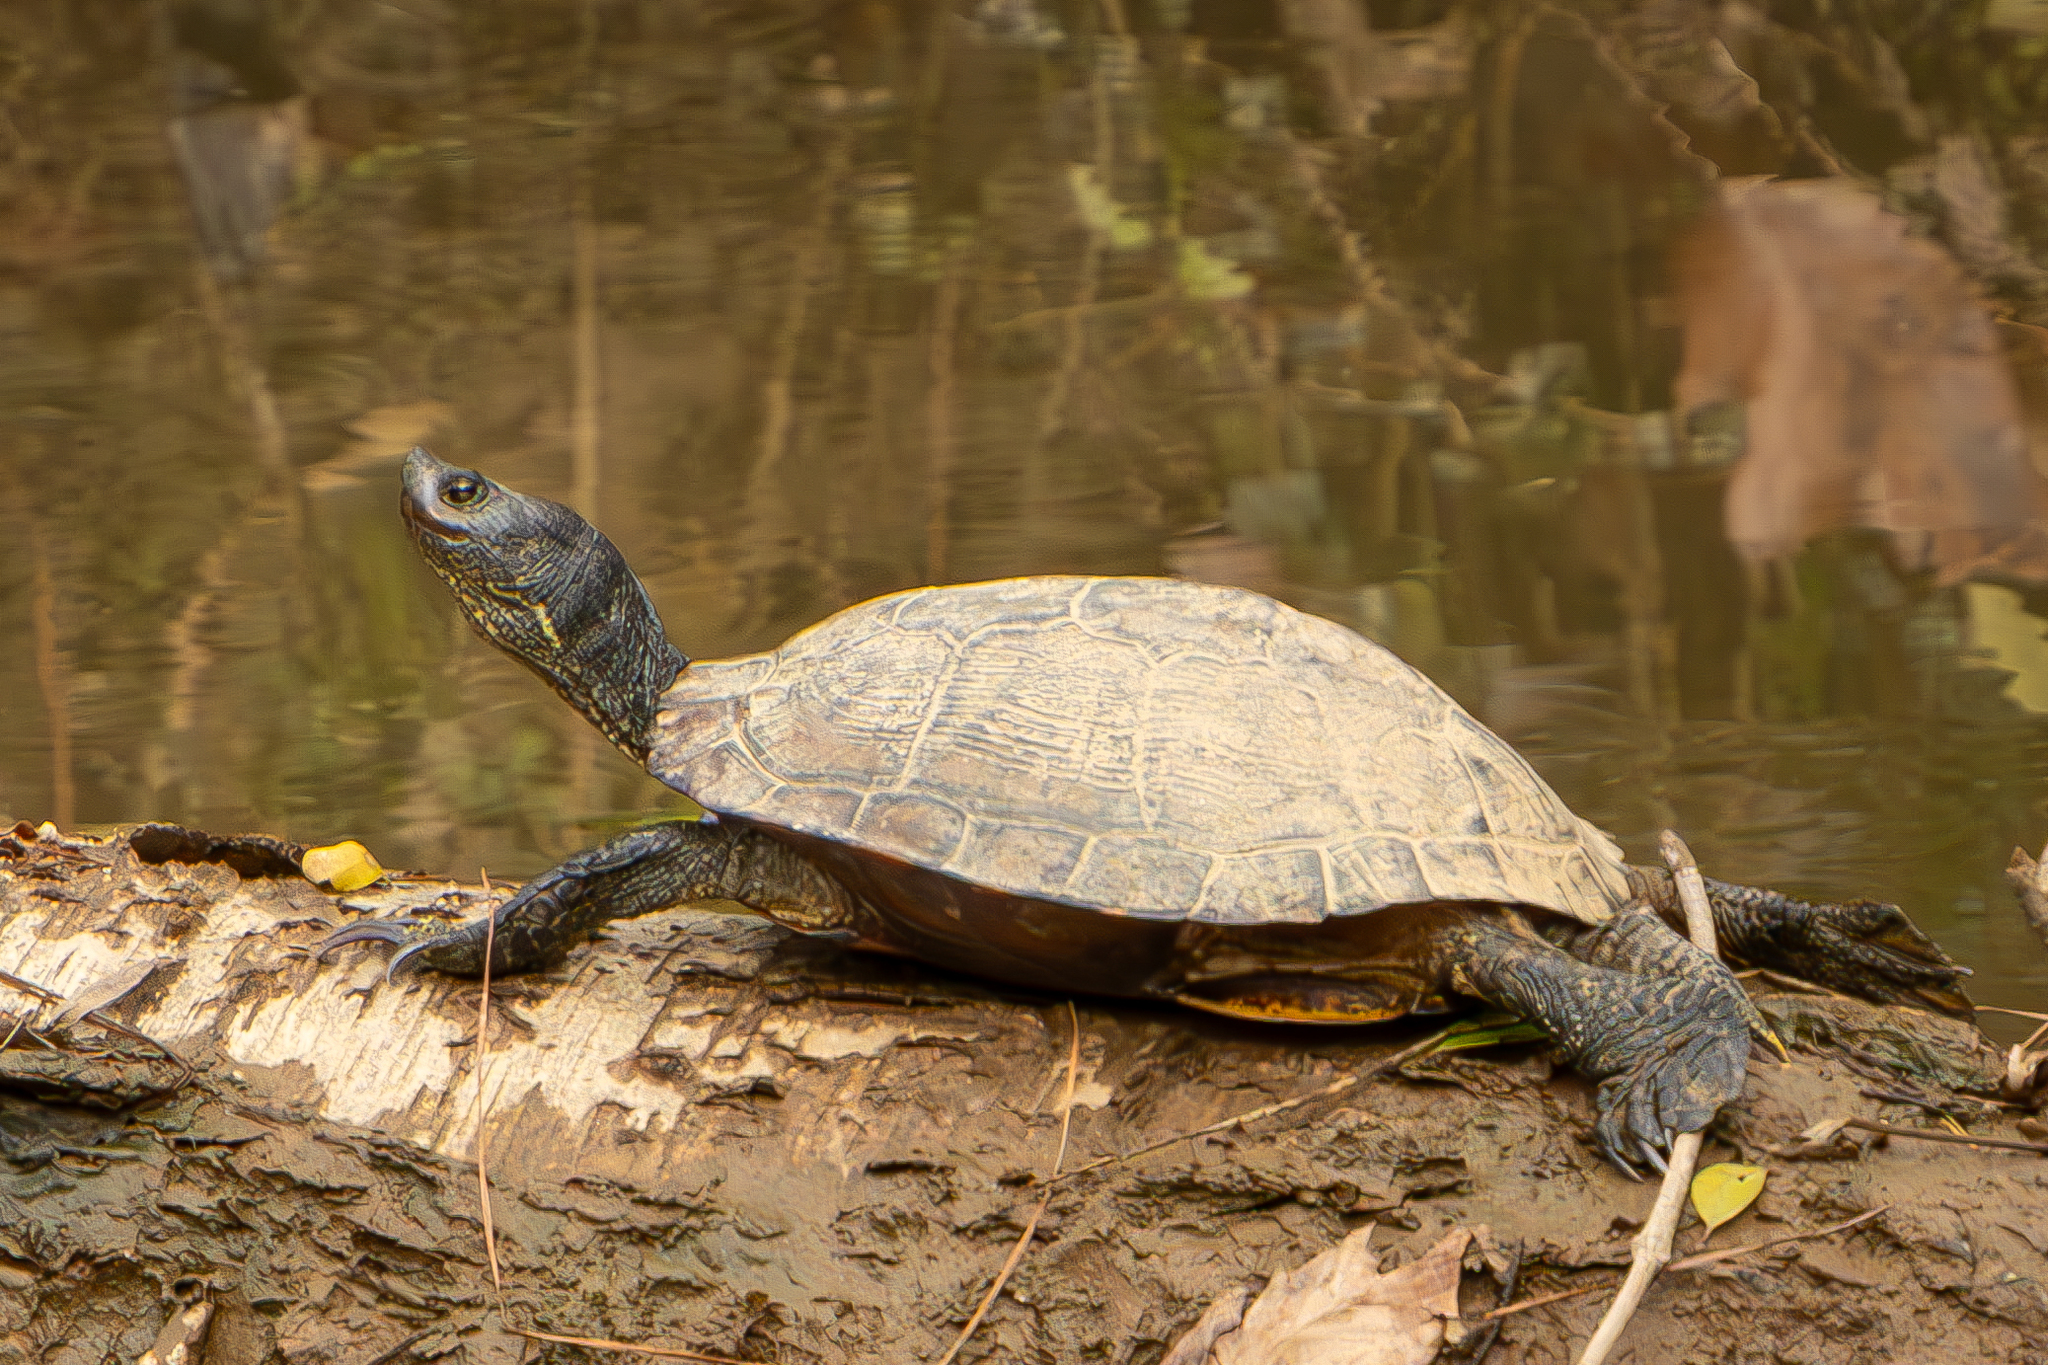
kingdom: Animalia
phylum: Chordata
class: Testudines
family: Emydidae
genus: Trachemys
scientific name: Trachemys scripta
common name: Slider
